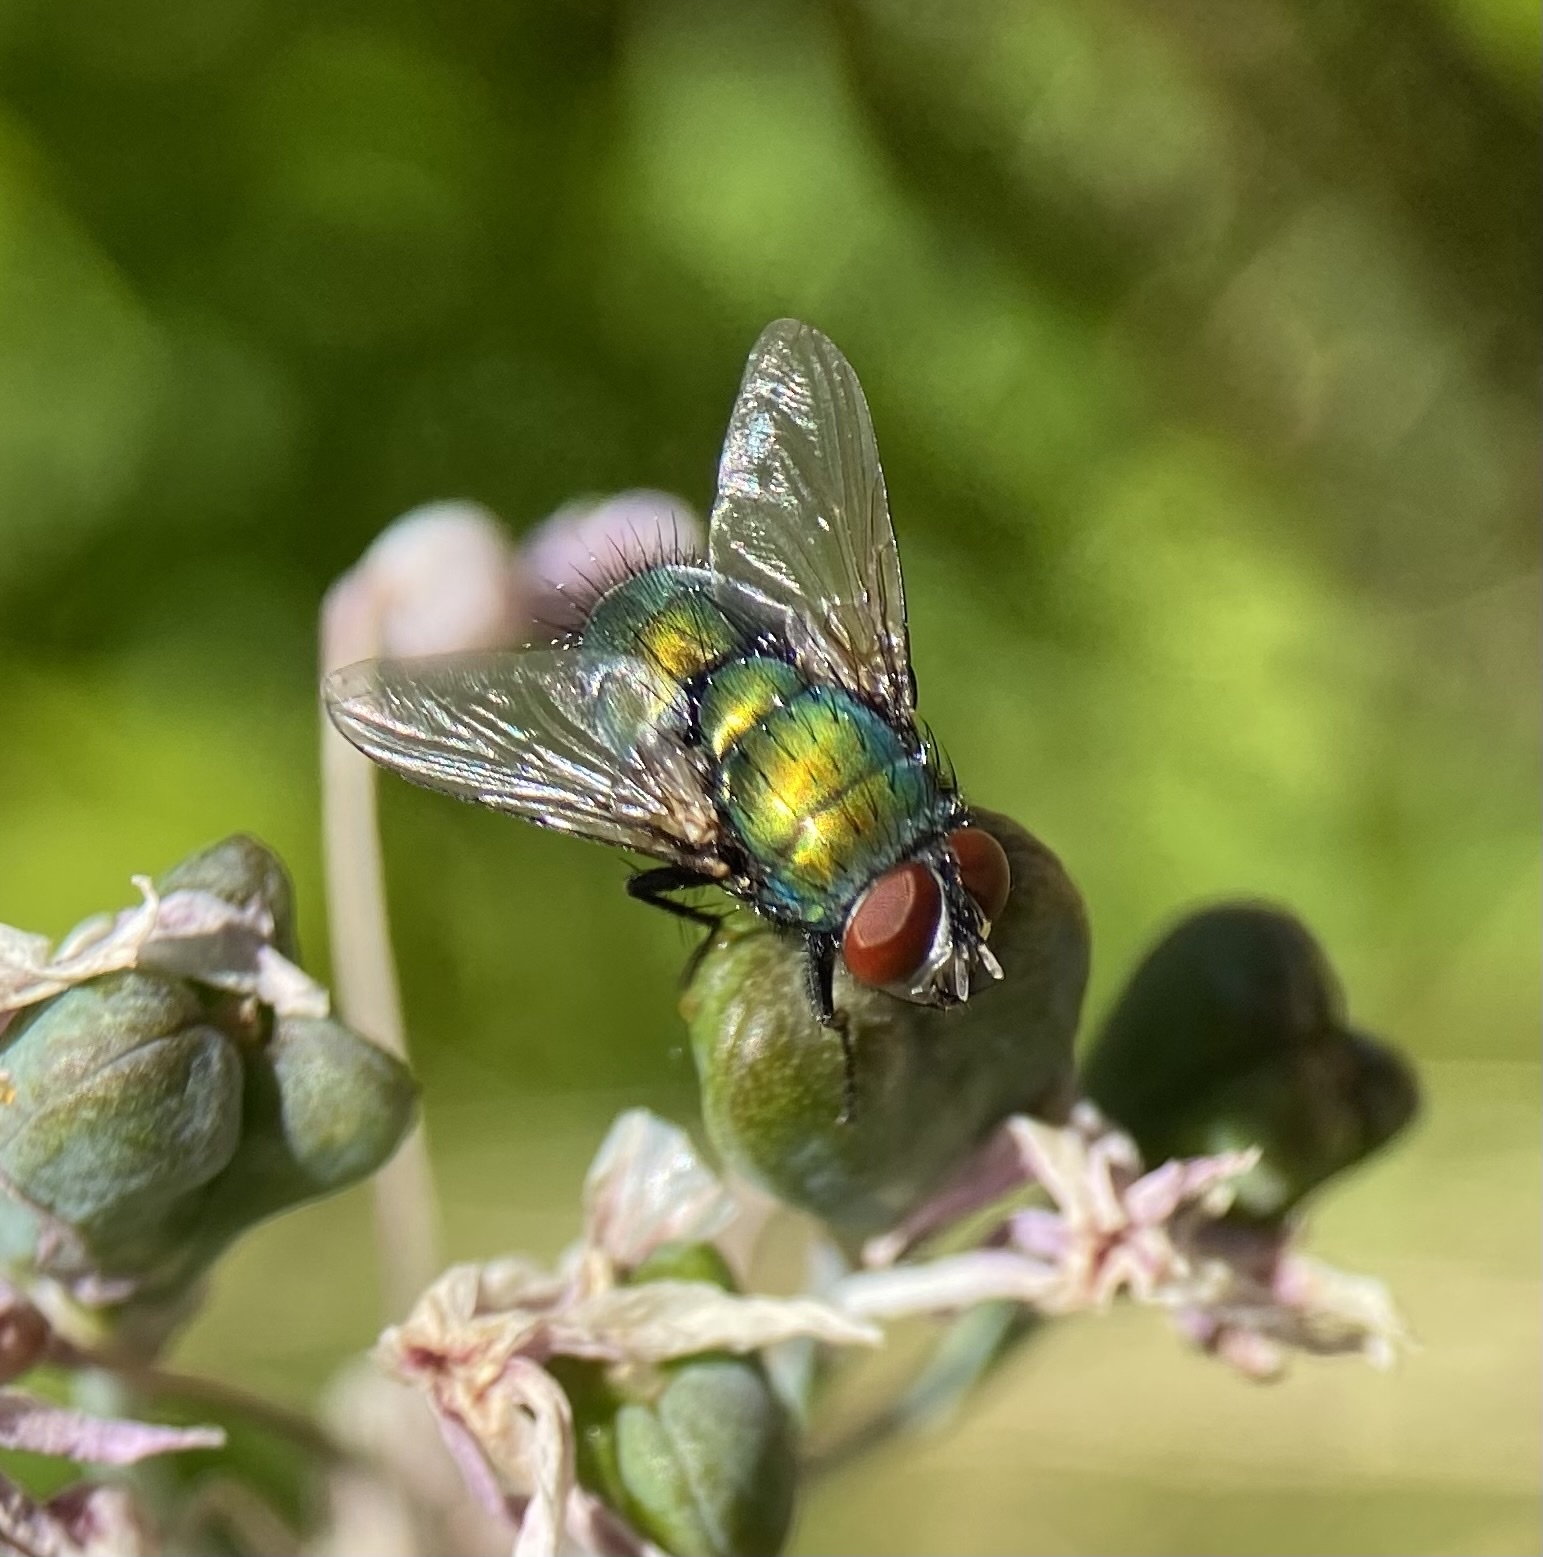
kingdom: Animalia
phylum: Arthropoda
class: Insecta
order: Diptera
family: Calliphoridae
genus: Lucilia
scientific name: Lucilia sericata
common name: Blow fly
